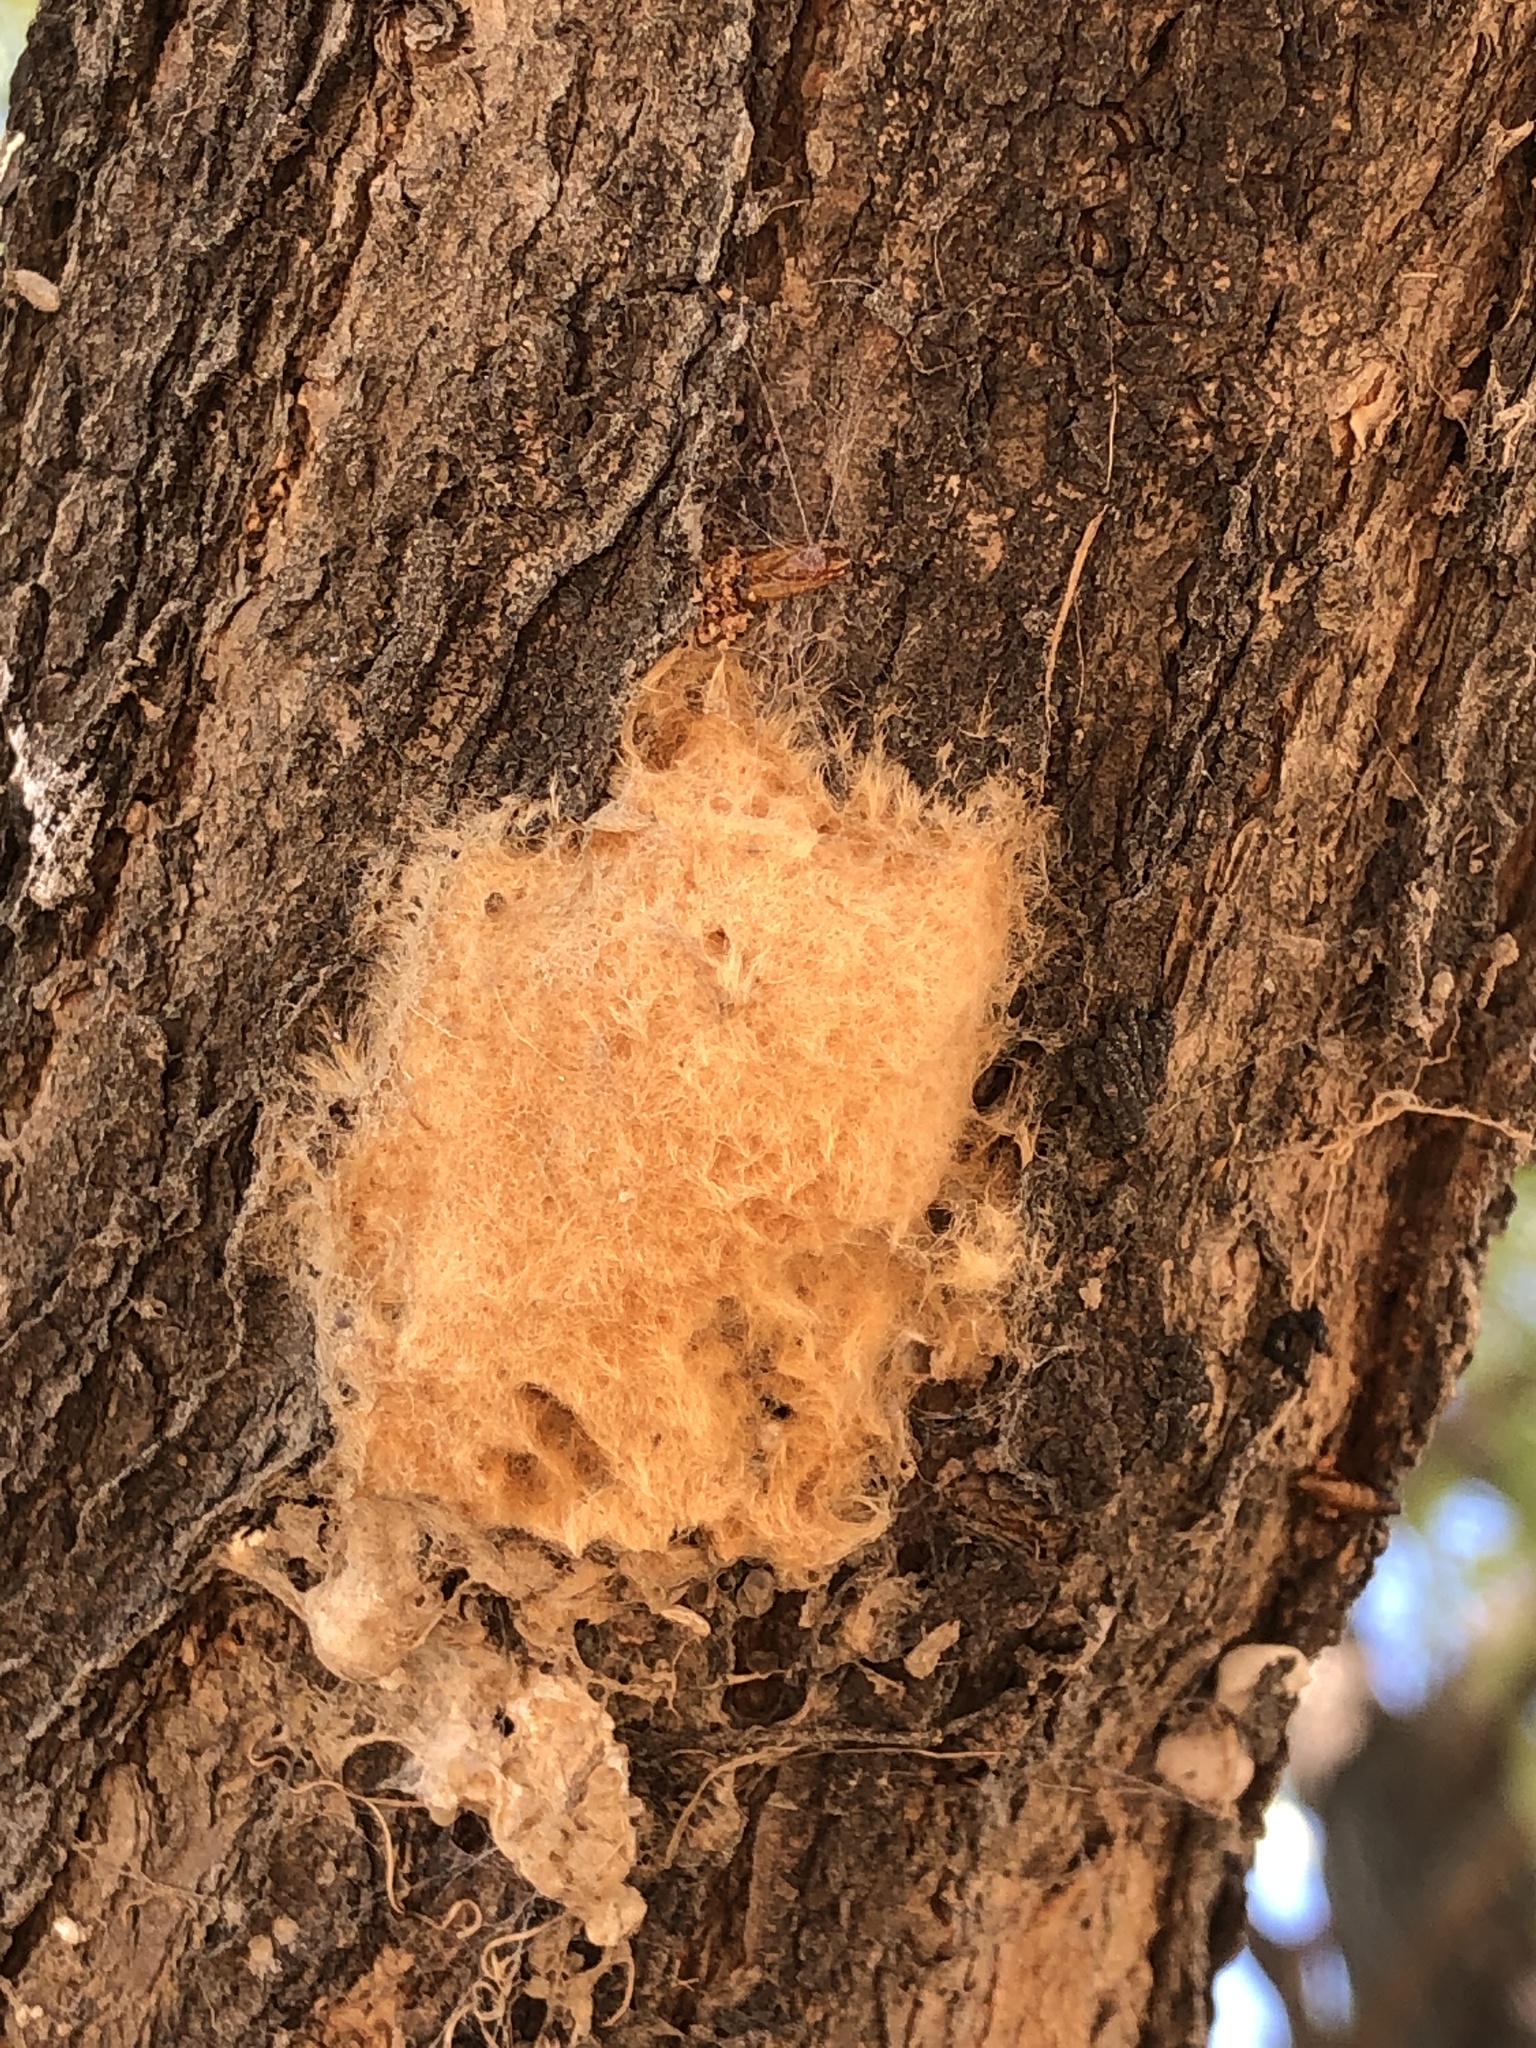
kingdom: Animalia
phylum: Arthropoda
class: Insecta
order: Lepidoptera
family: Erebidae
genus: Lymantria
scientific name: Lymantria dispar
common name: Gypsy moth
